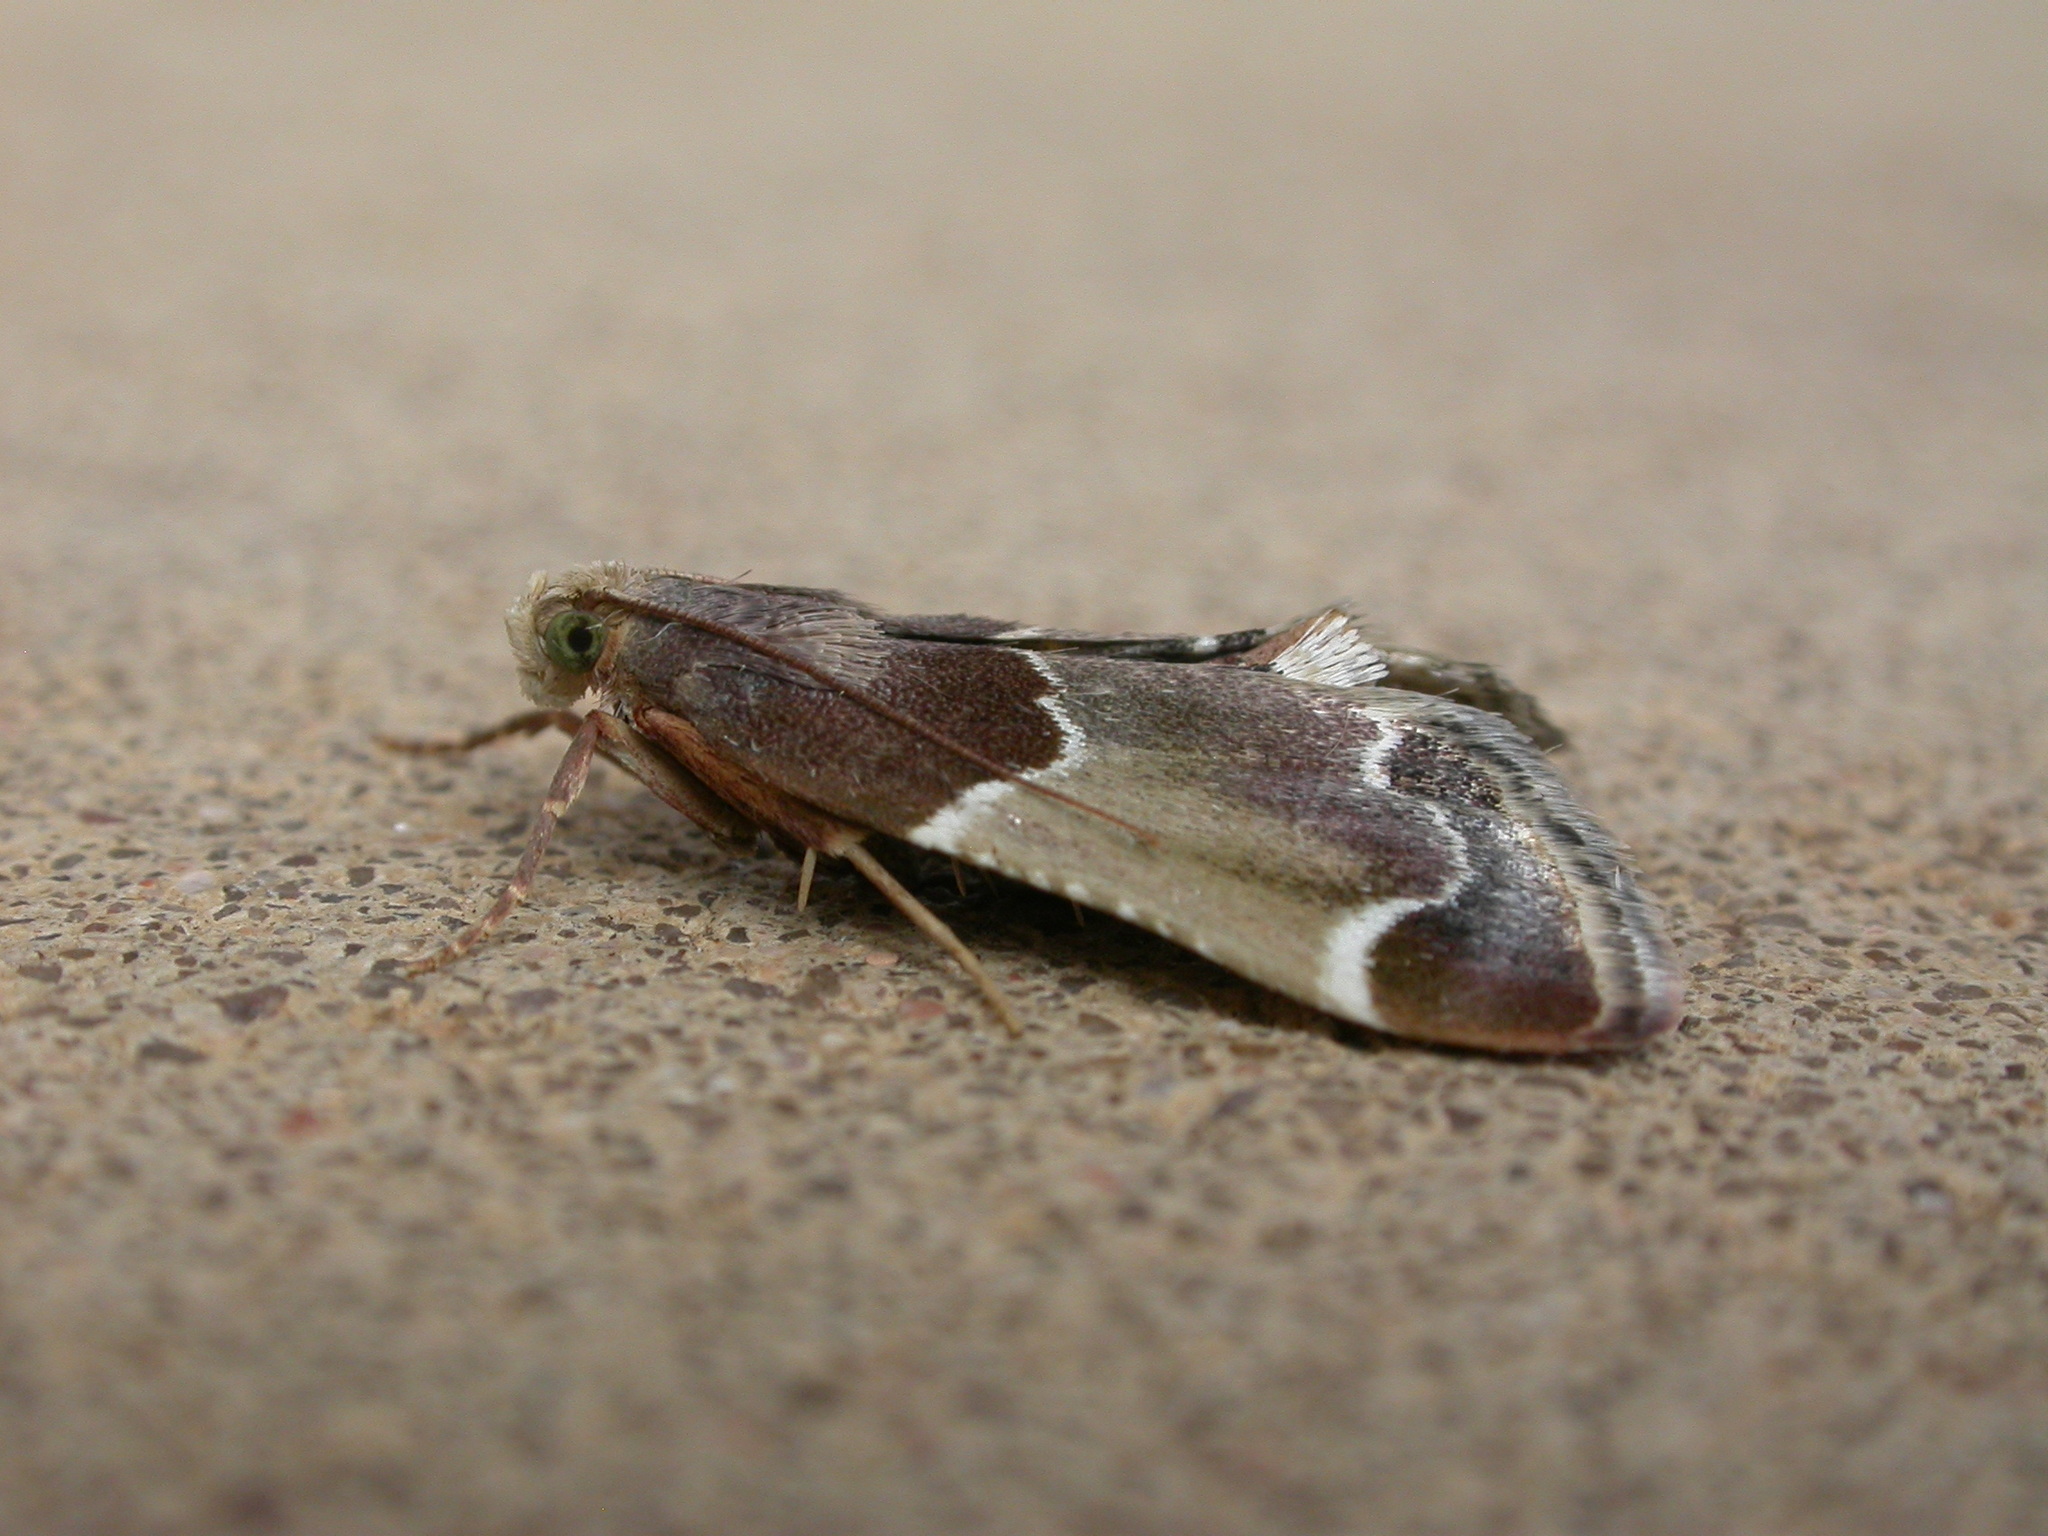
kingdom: Animalia
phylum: Arthropoda
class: Insecta
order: Lepidoptera
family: Pyralidae
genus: Pyralis
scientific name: Pyralis farinalis
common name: Meal moth
